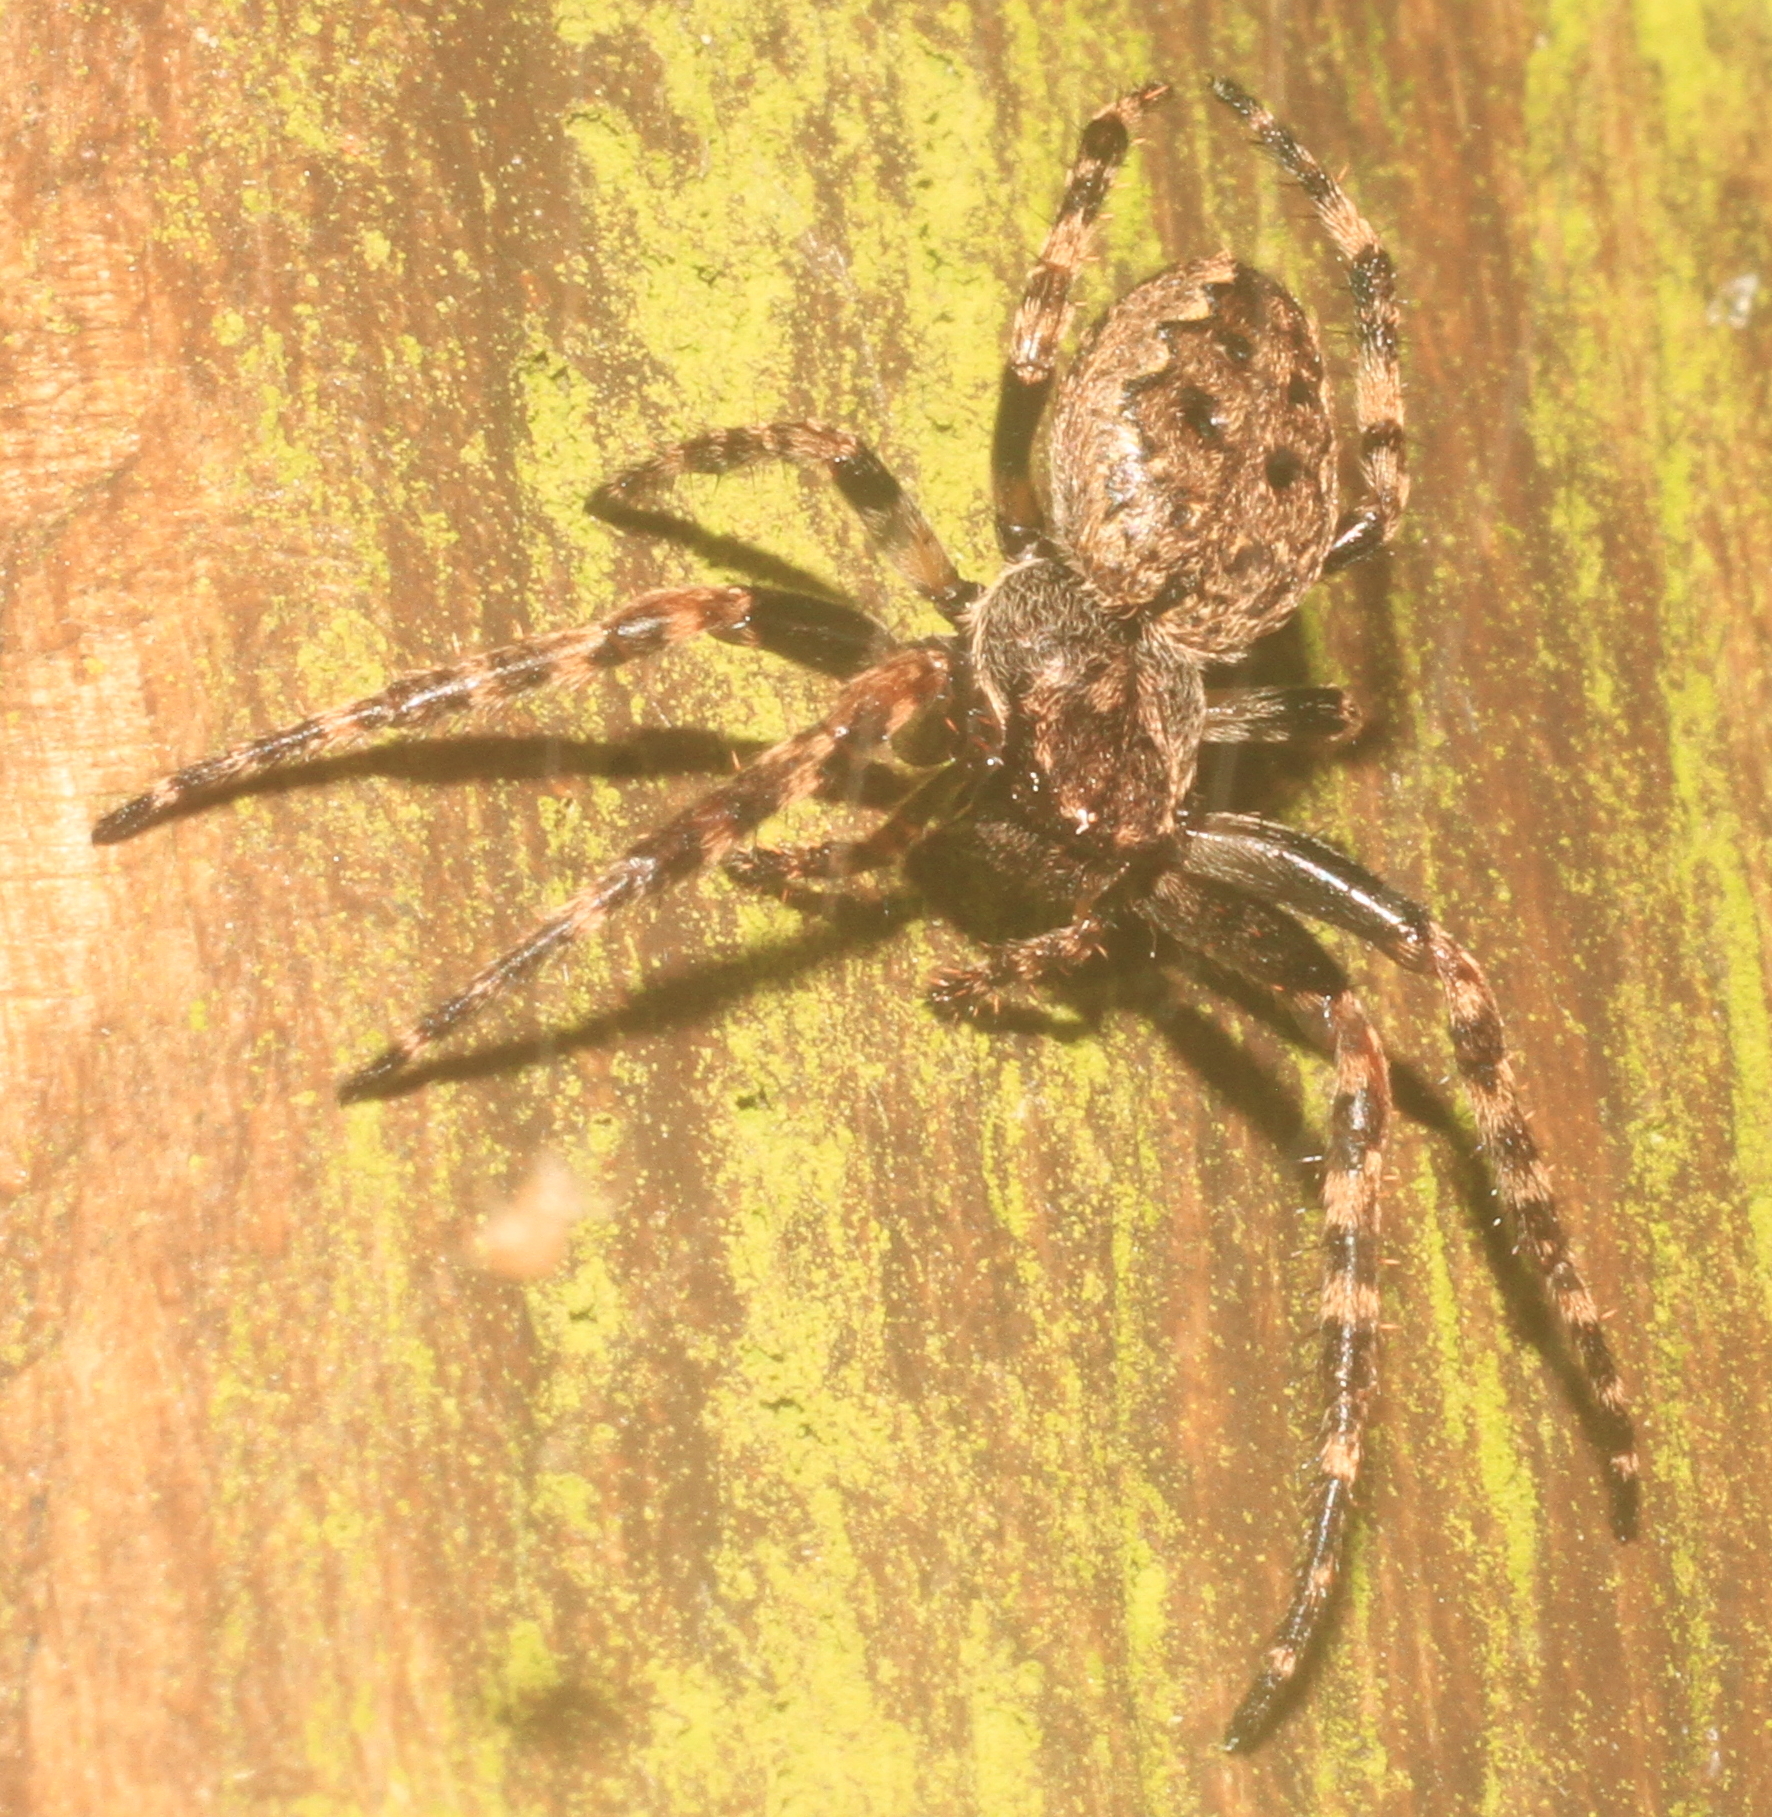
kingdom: Animalia
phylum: Arthropoda
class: Arachnida
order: Araneae
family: Araneidae
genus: Nuctenea
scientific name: Nuctenea umbratica
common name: Toad spider
